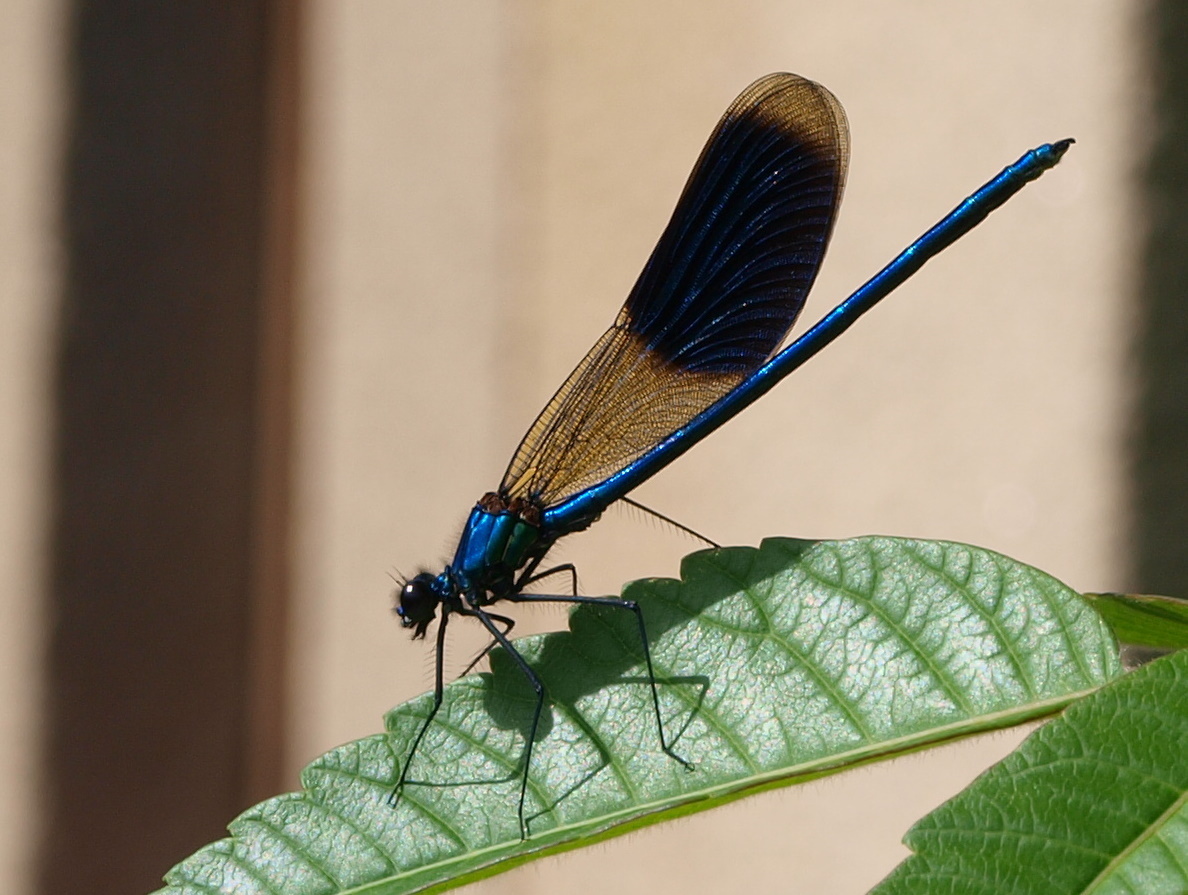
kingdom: Animalia
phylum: Arthropoda
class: Insecta
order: Odonata
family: Calopterygidae
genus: Calopteryx
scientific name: Calopteryx splendens
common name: Banded demoiselle
